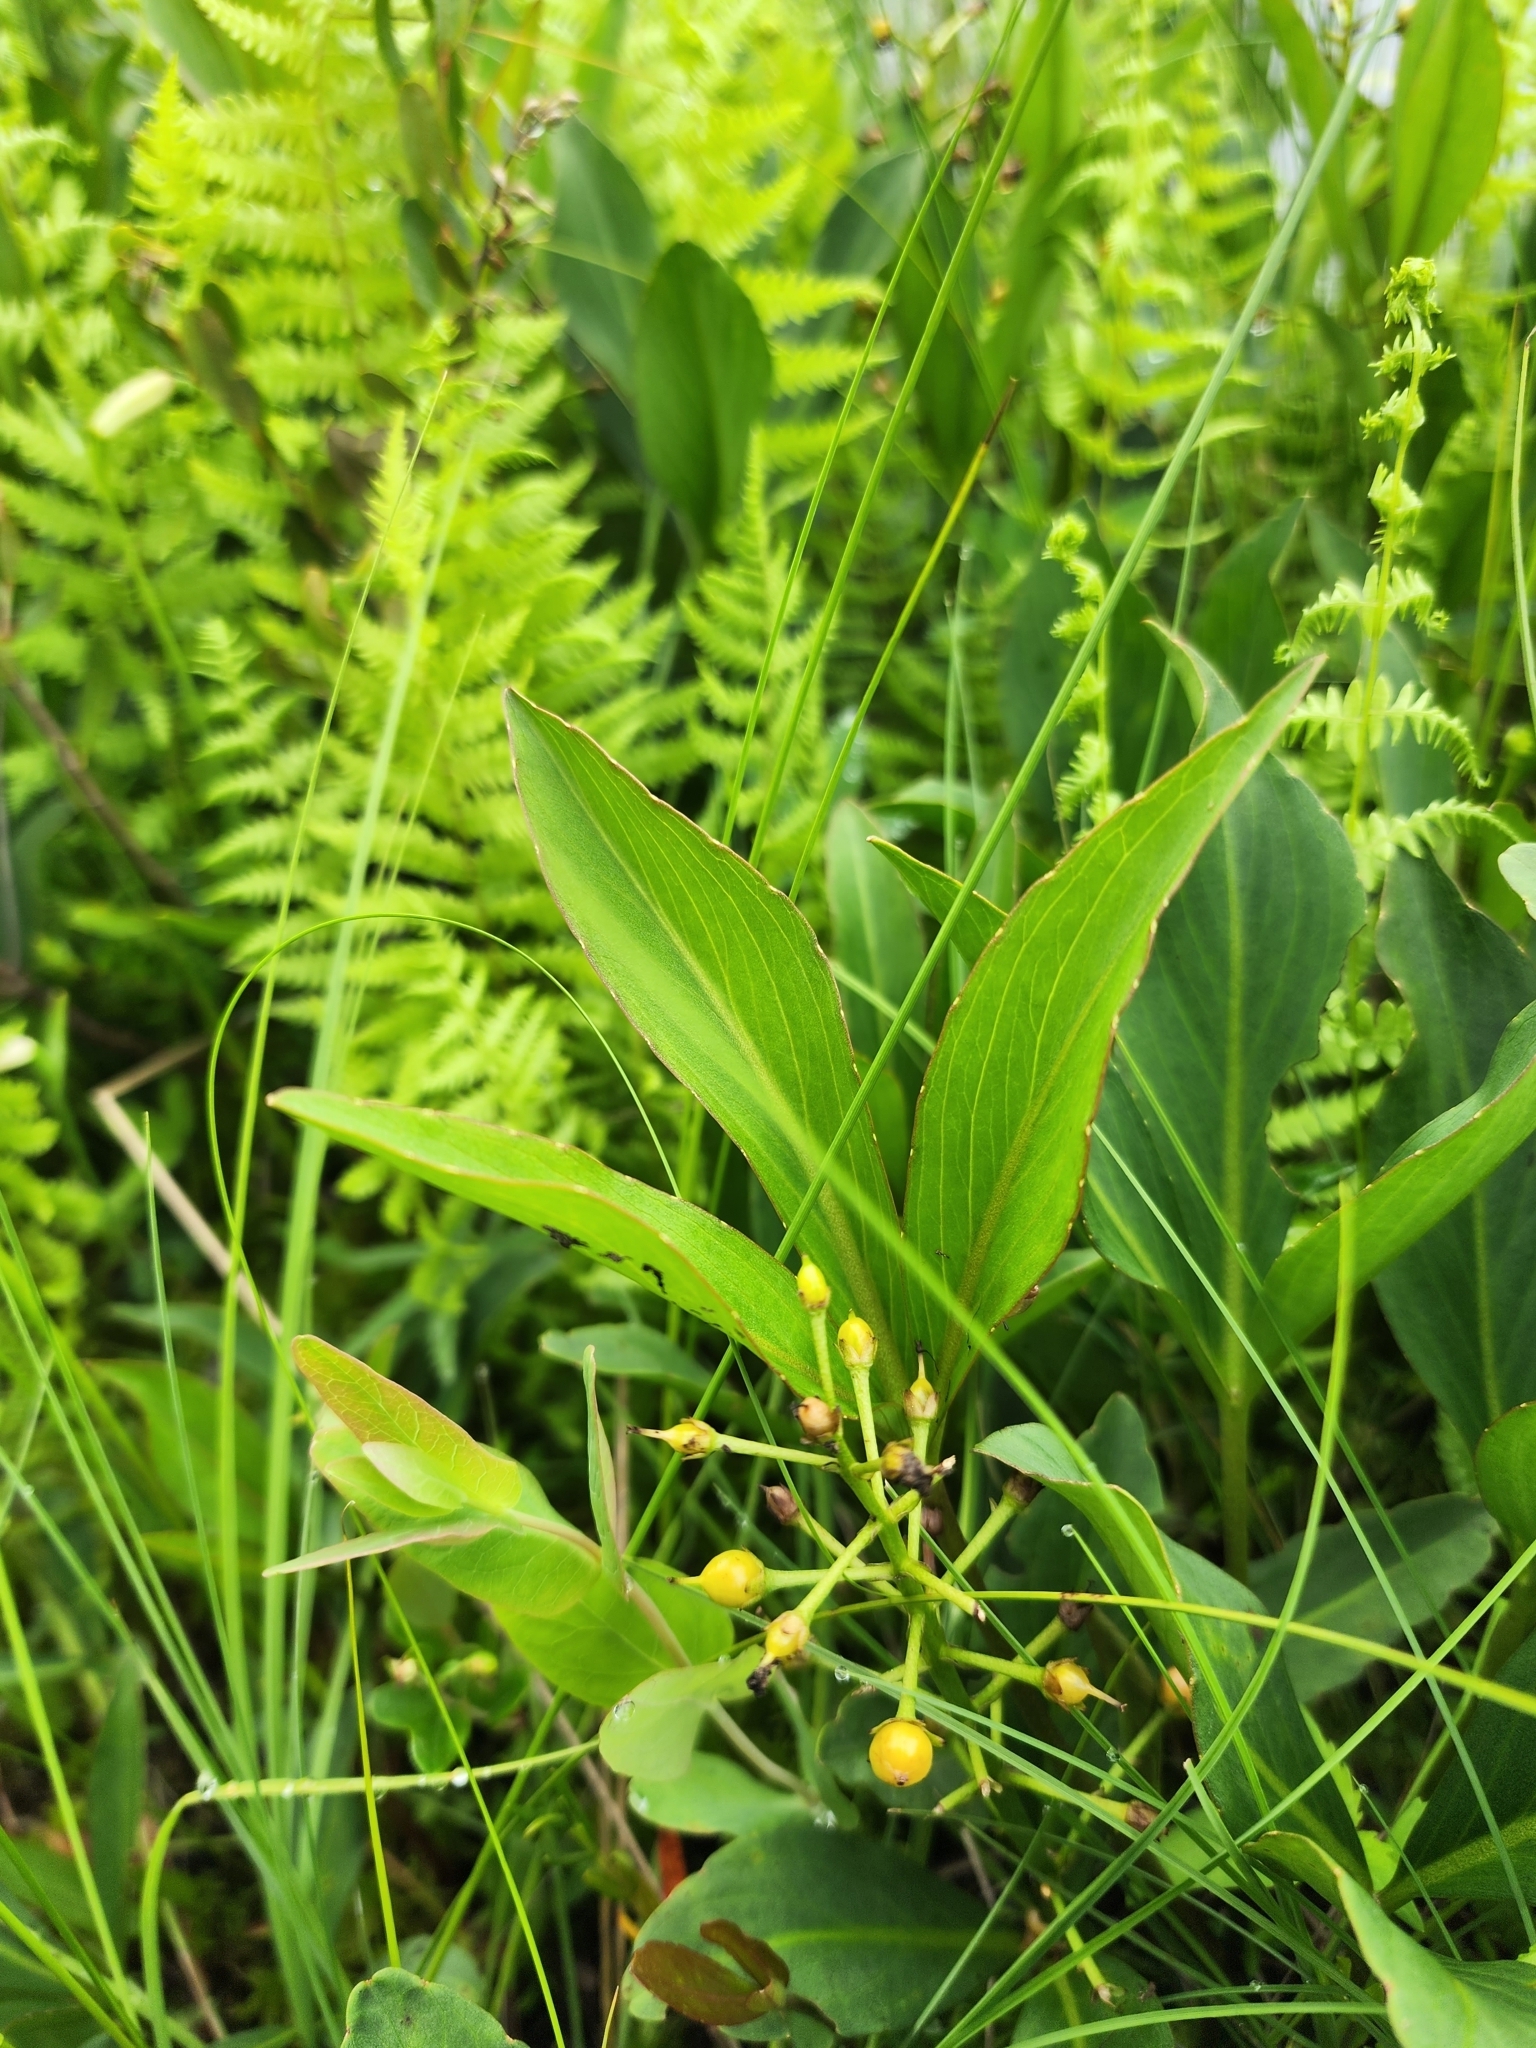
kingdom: Plantae
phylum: Tracheophyta
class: Magnoliopsida
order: Asterales
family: Menyanthaceae
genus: Menyanthes
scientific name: Menyanthes trifoliata
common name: Bogbean
